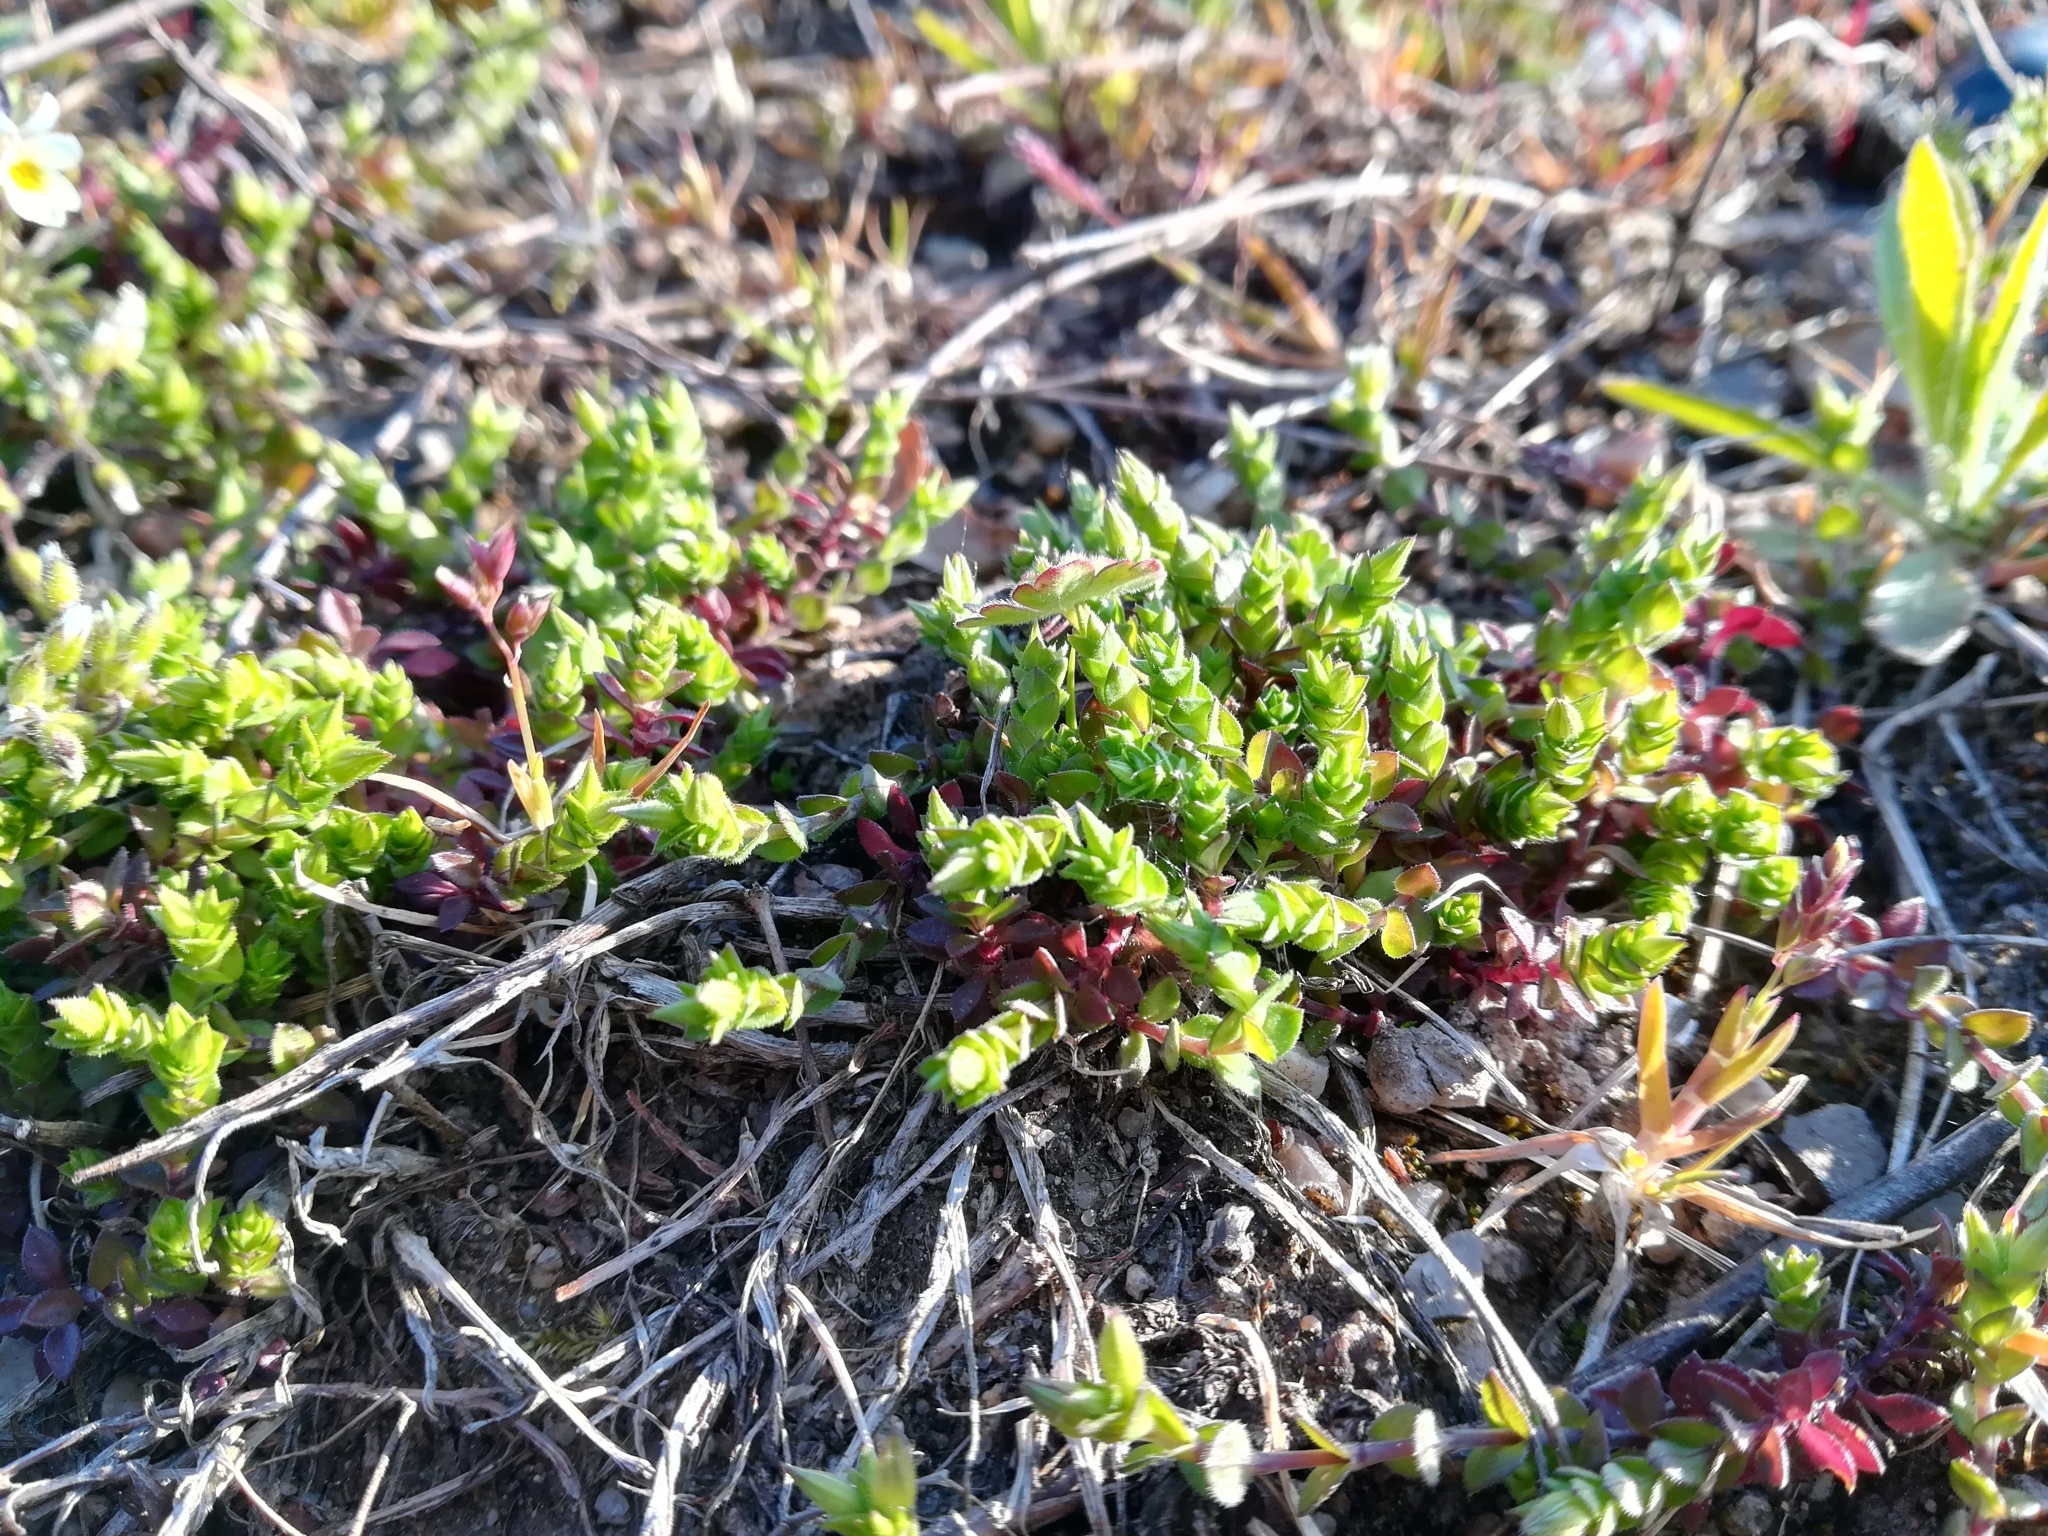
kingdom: Plantae
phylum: Tracheophyta
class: Magnoliopsida
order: Caryophyllales
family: Caryophyllaceae
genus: Arenaria
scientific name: Arenaria serpyllifolia
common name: Thyme-leaved sandwort
